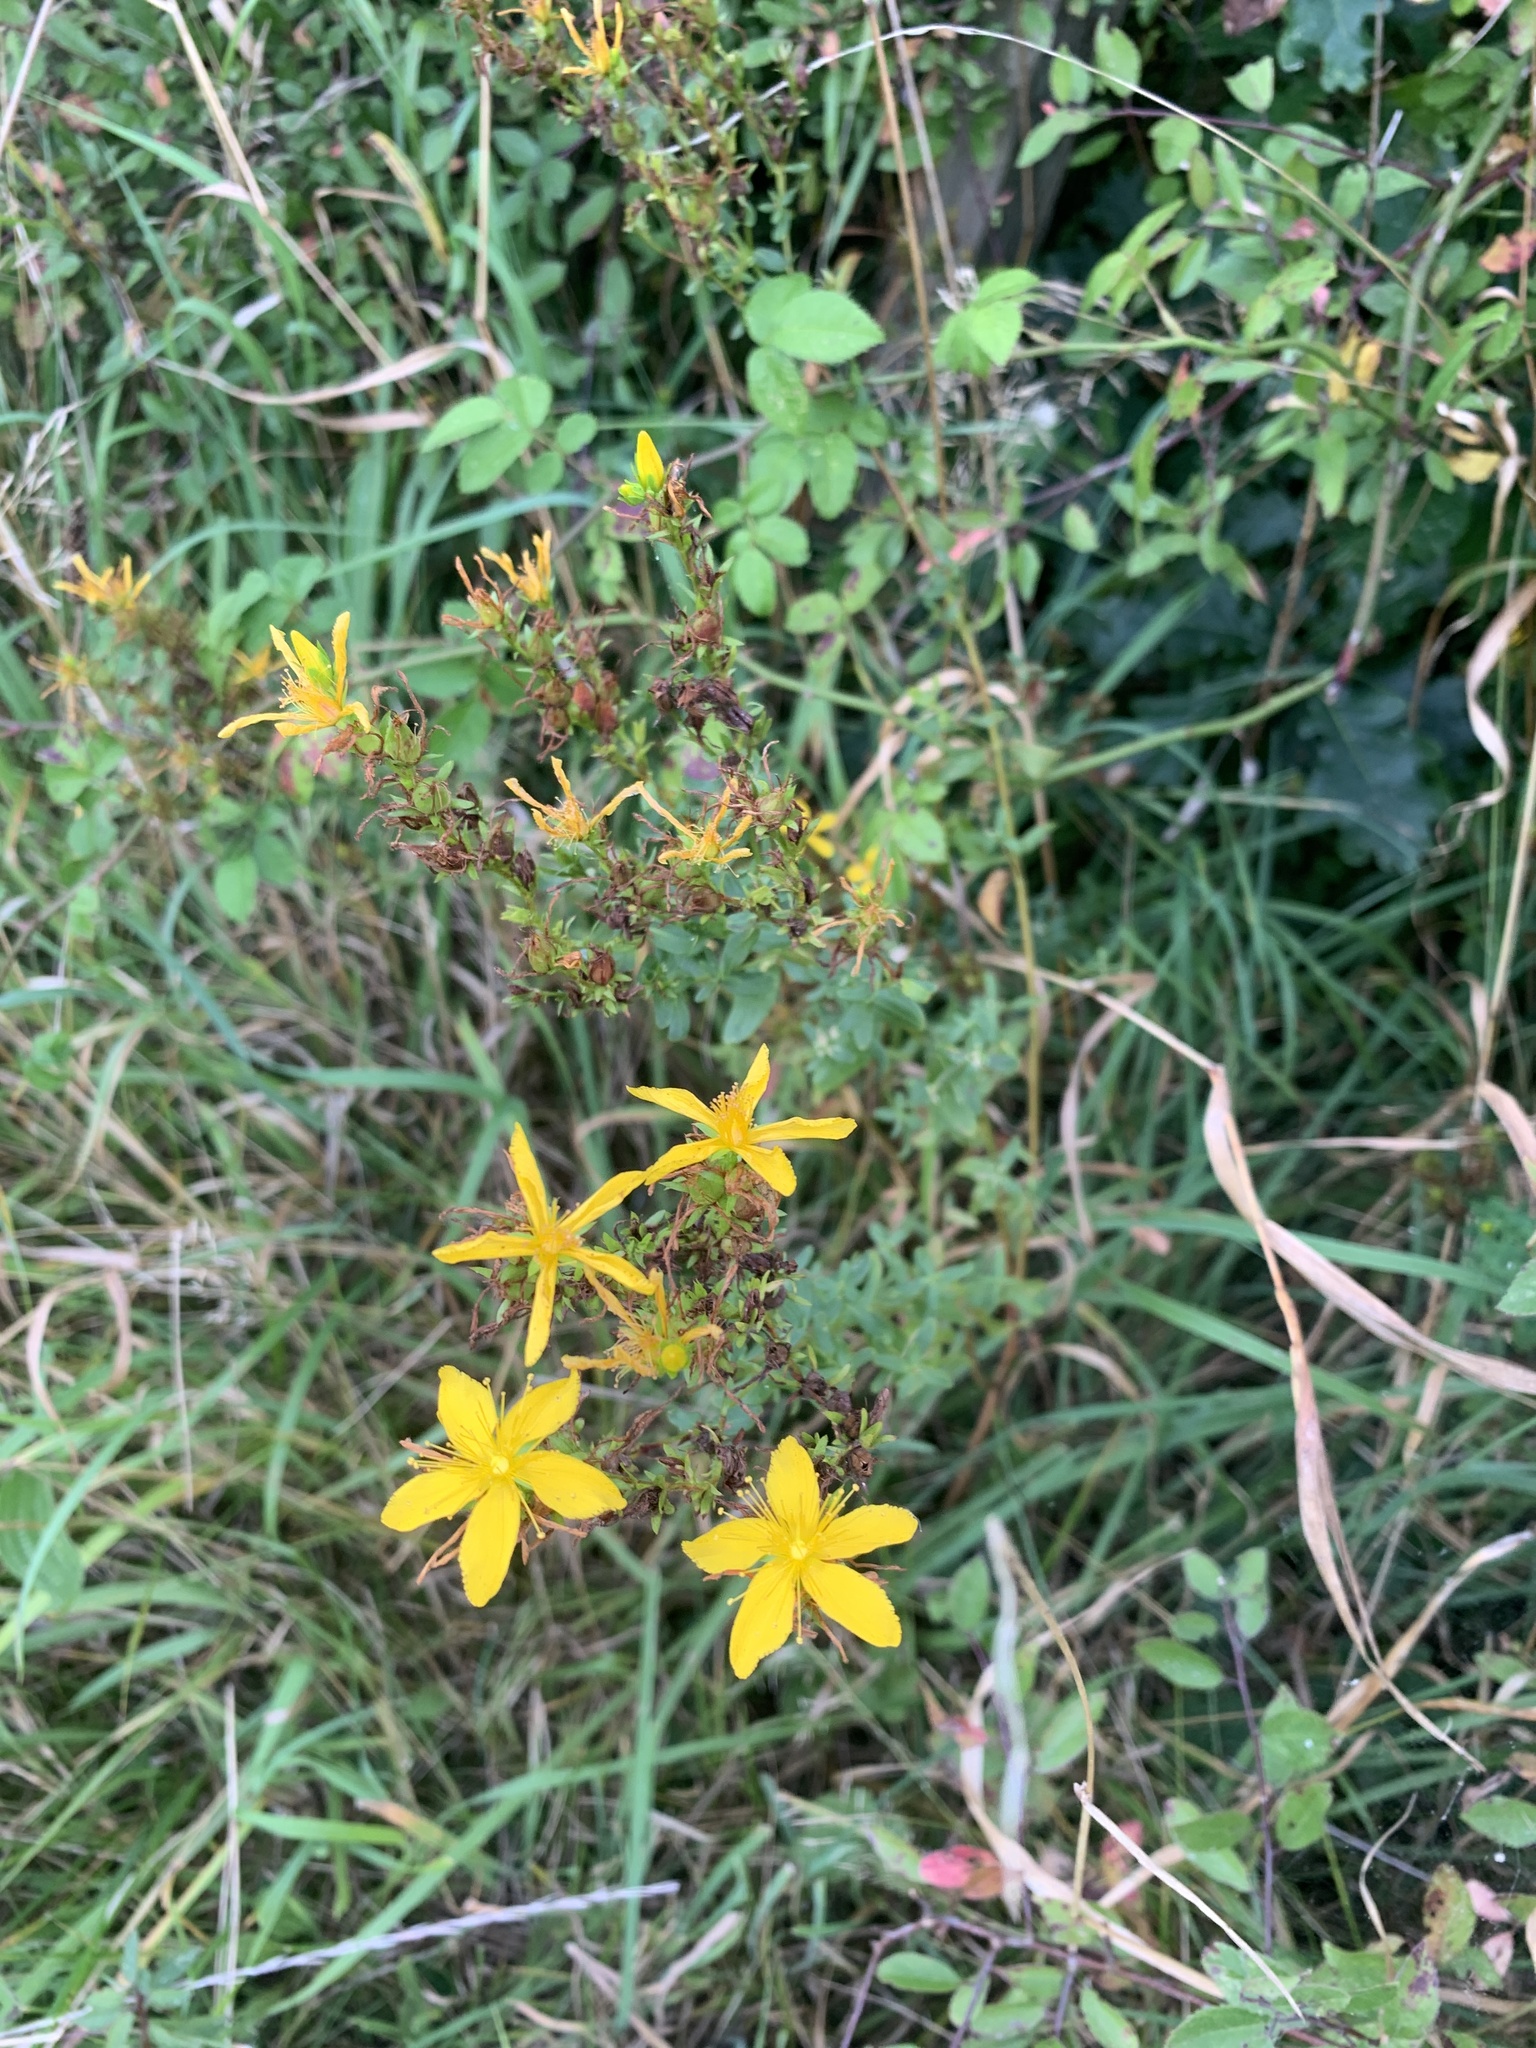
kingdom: Plantae
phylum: Tracheophyta
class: Magnoliopsida
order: Malpighiales
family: Hypericaceae
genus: Hypericum
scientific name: Hypericum perforatum
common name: Common st. johnswort
